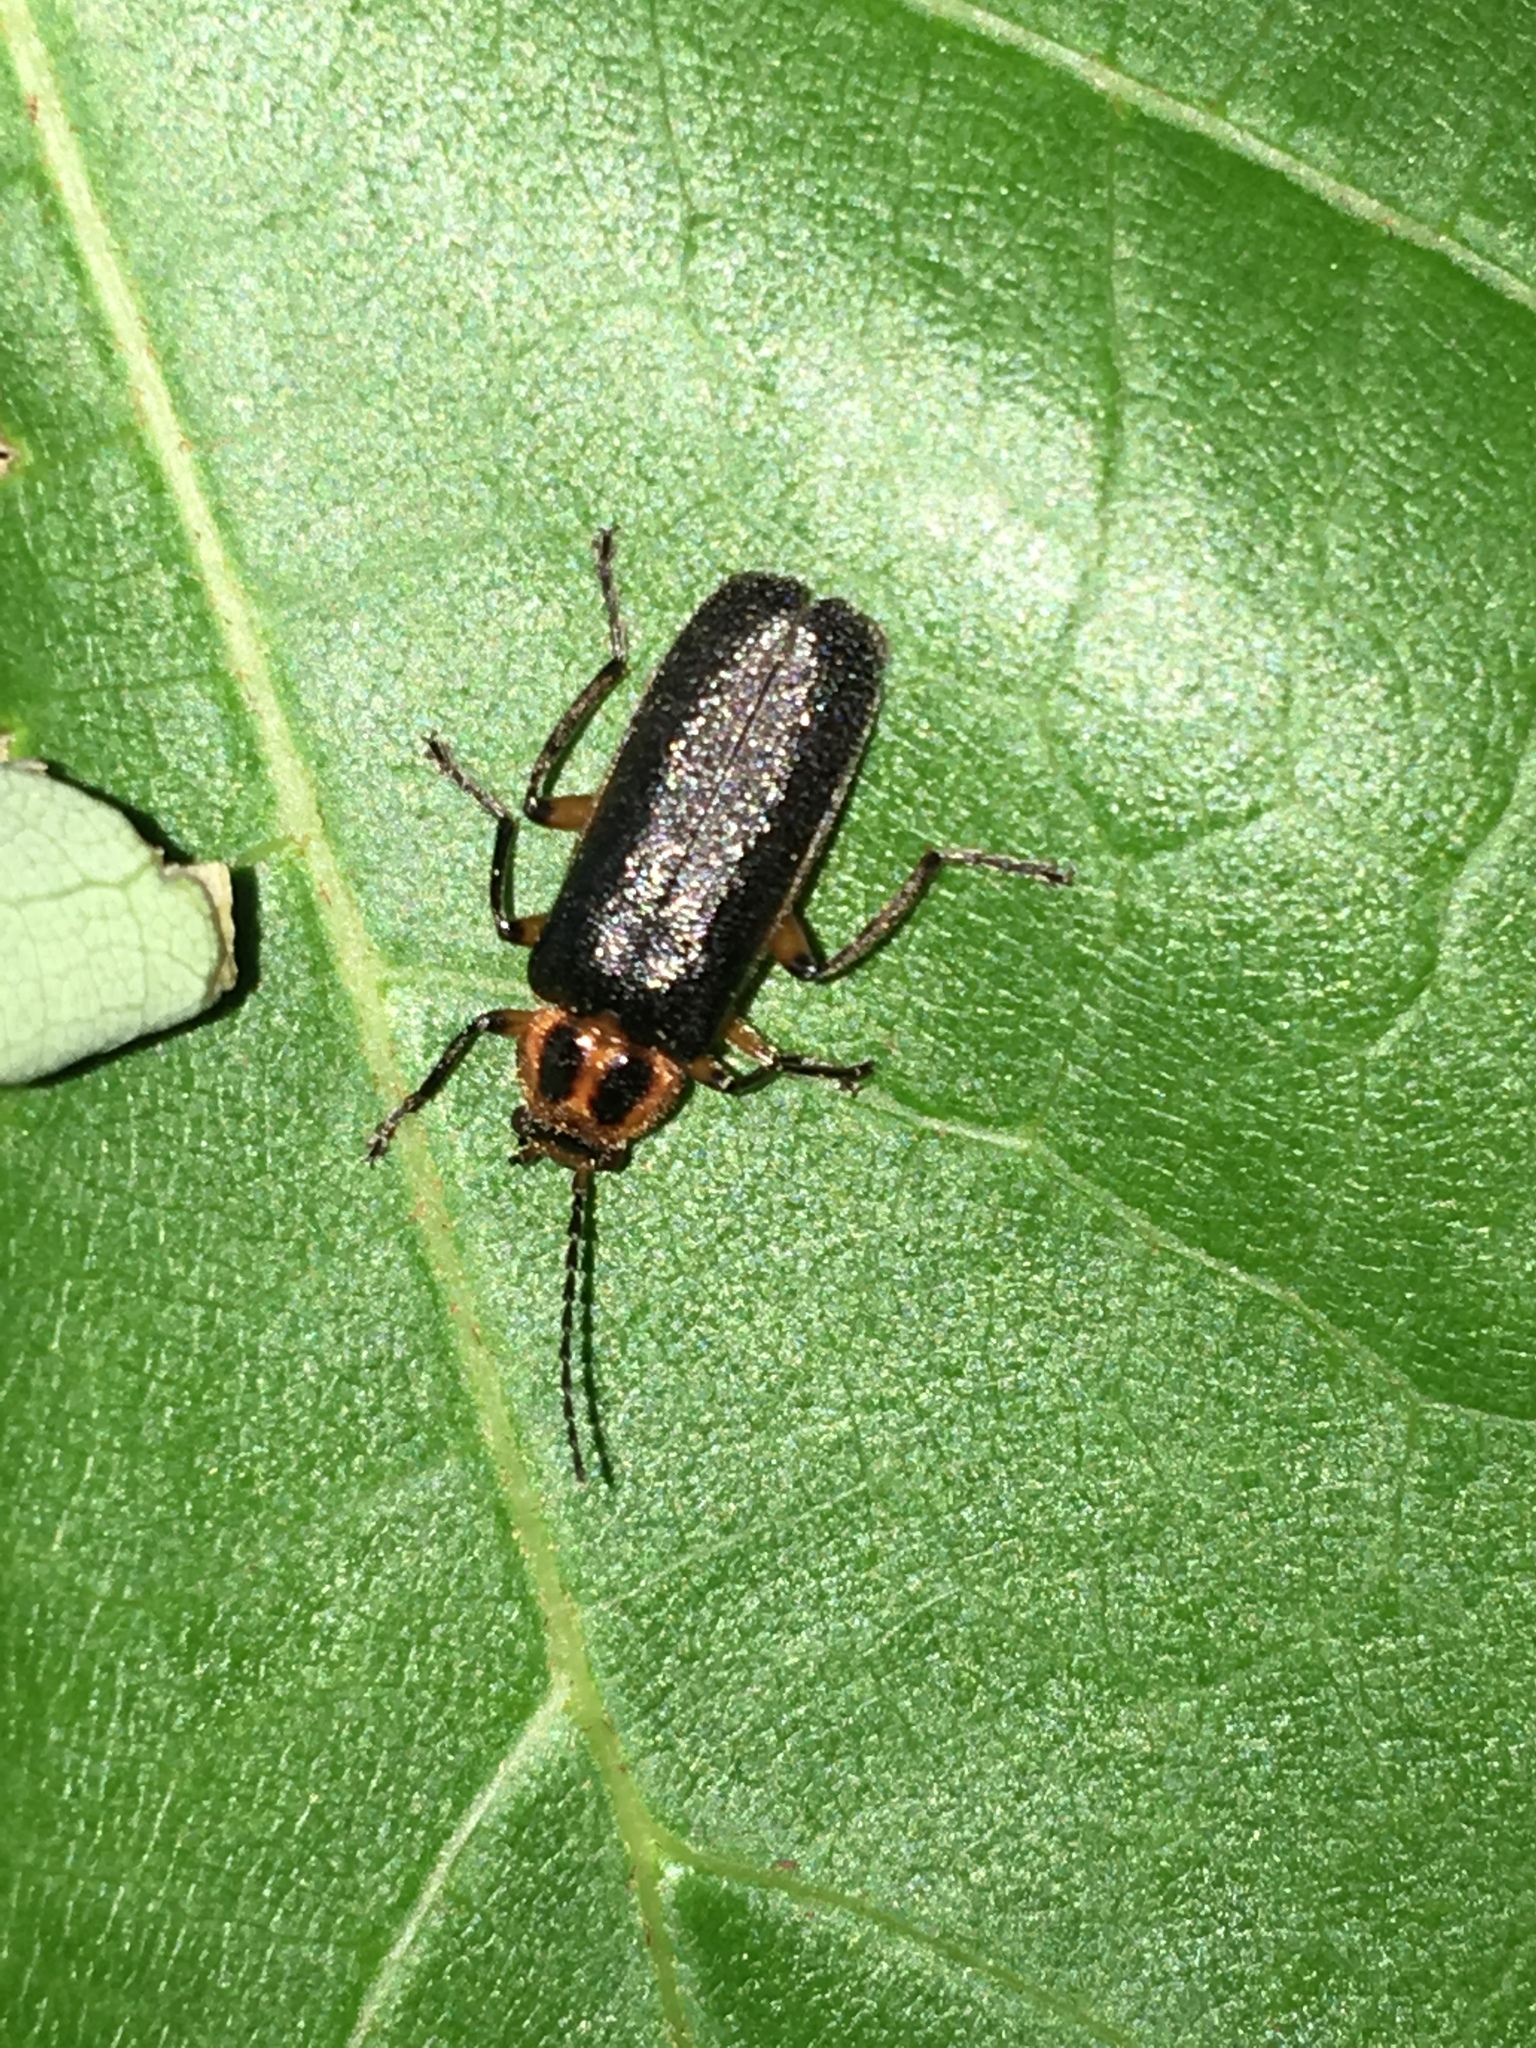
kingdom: Animalia
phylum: Arthropoda
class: Insecta
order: Coleoptera
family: Cantharidae
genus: Atalantycha
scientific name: Atalantycha bilineata
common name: Two-lined leatherwing
